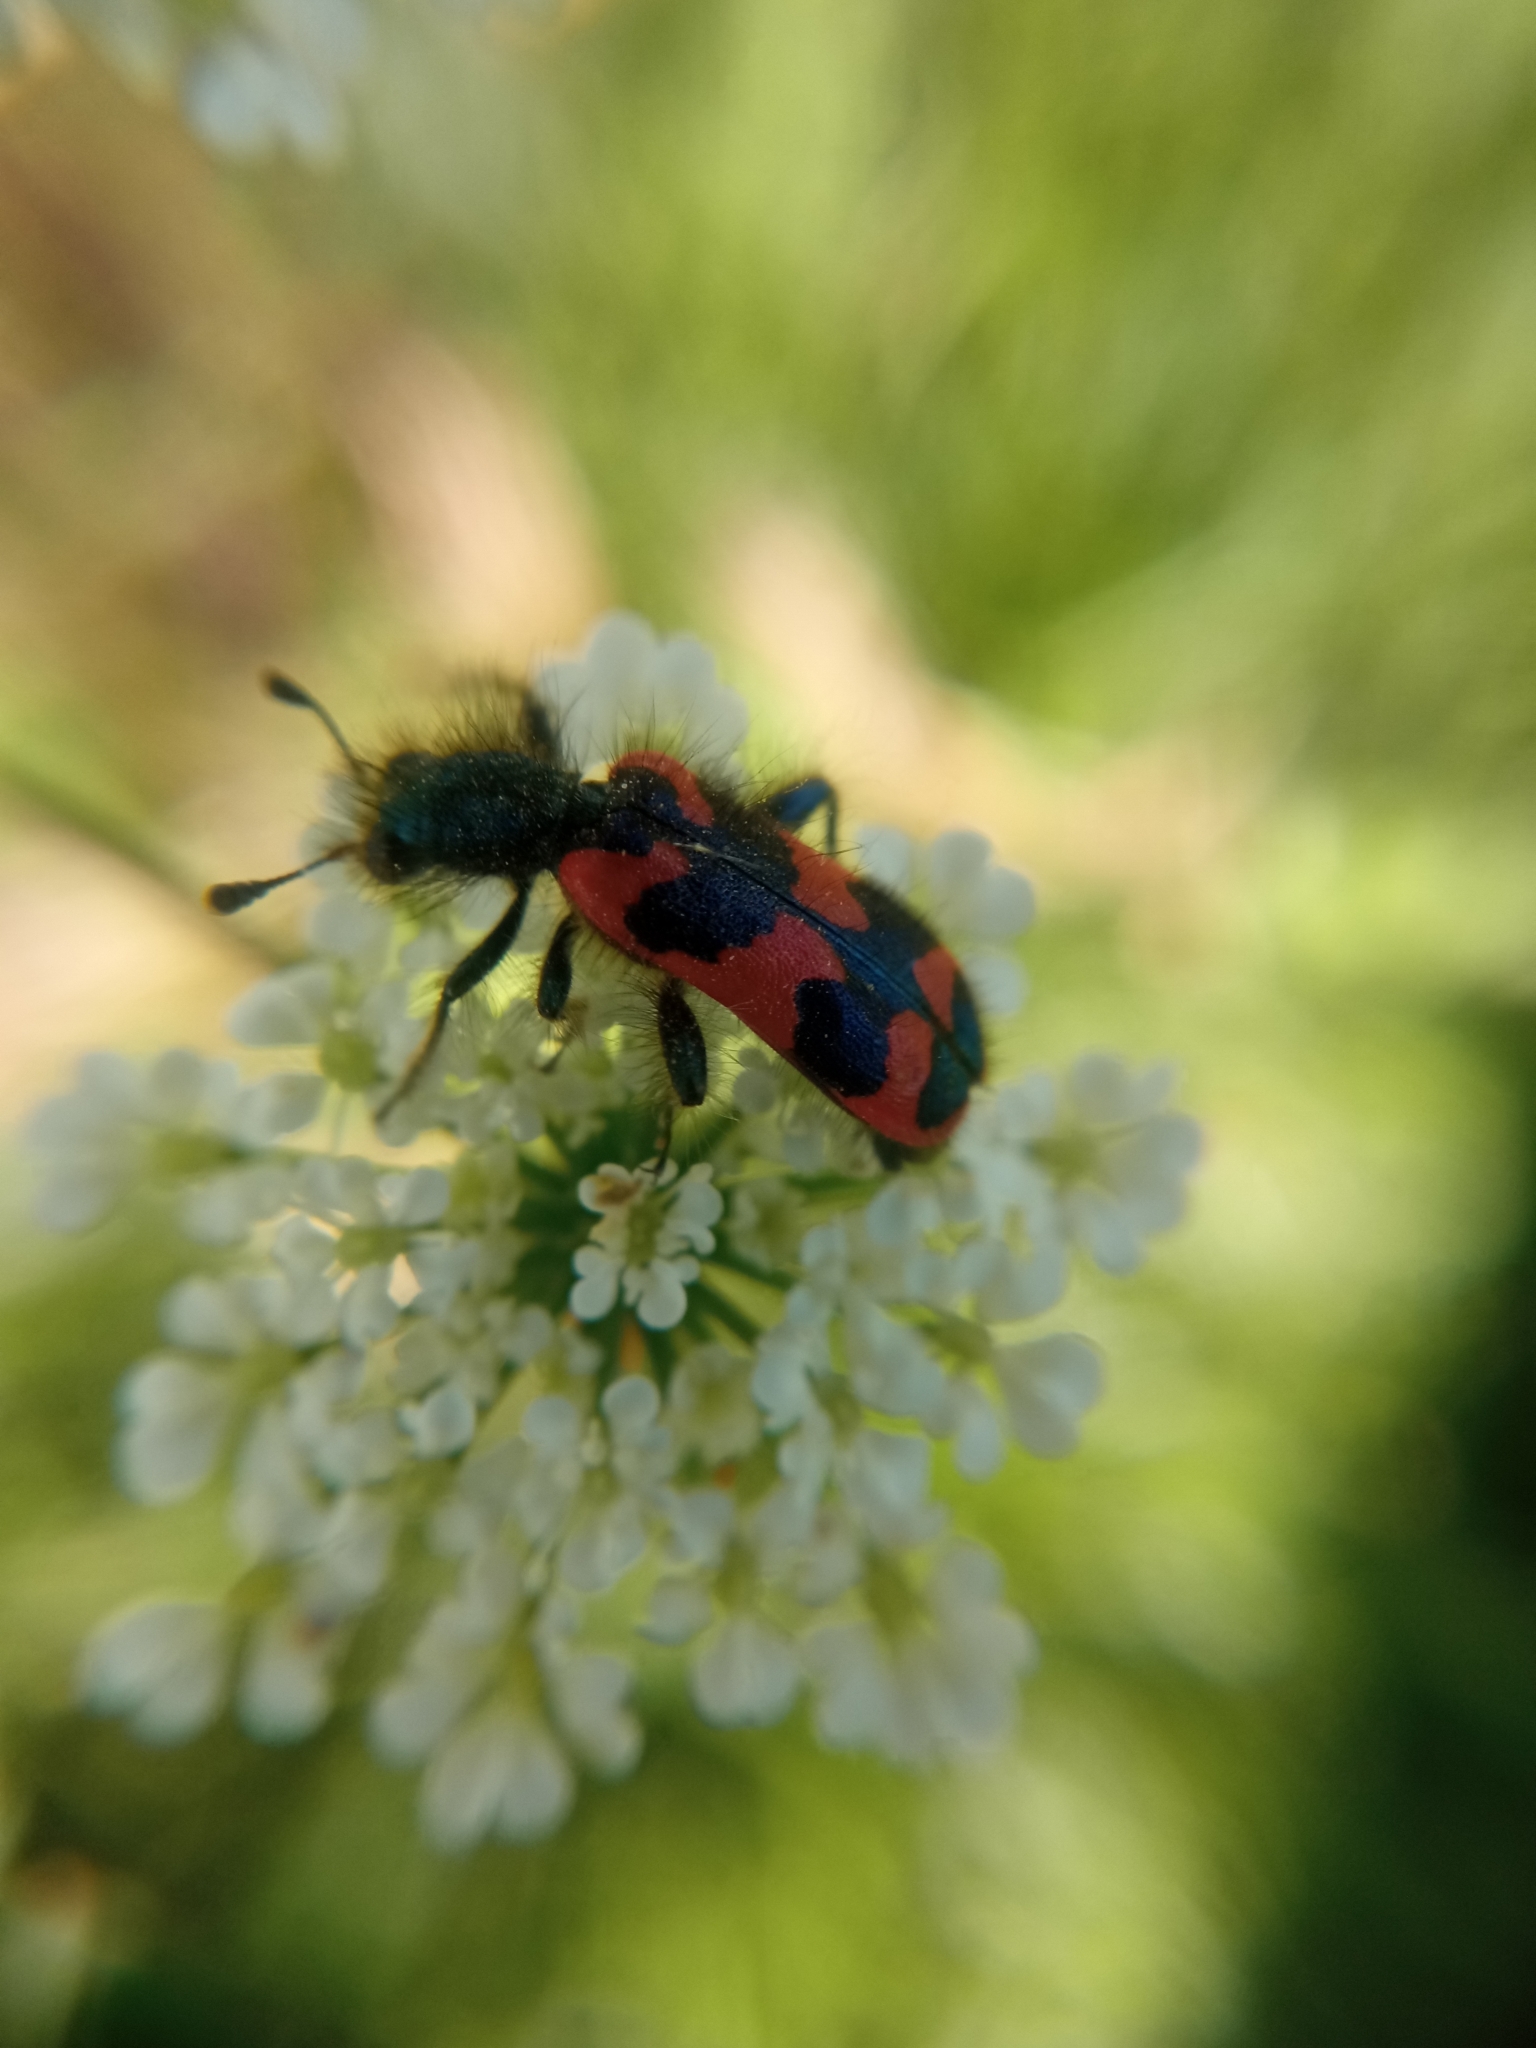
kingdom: Animalia
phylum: Arthropoda
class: Insecta
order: Coleoptera
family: Cleridae
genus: Trichodes
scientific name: Trichodes alvearius
